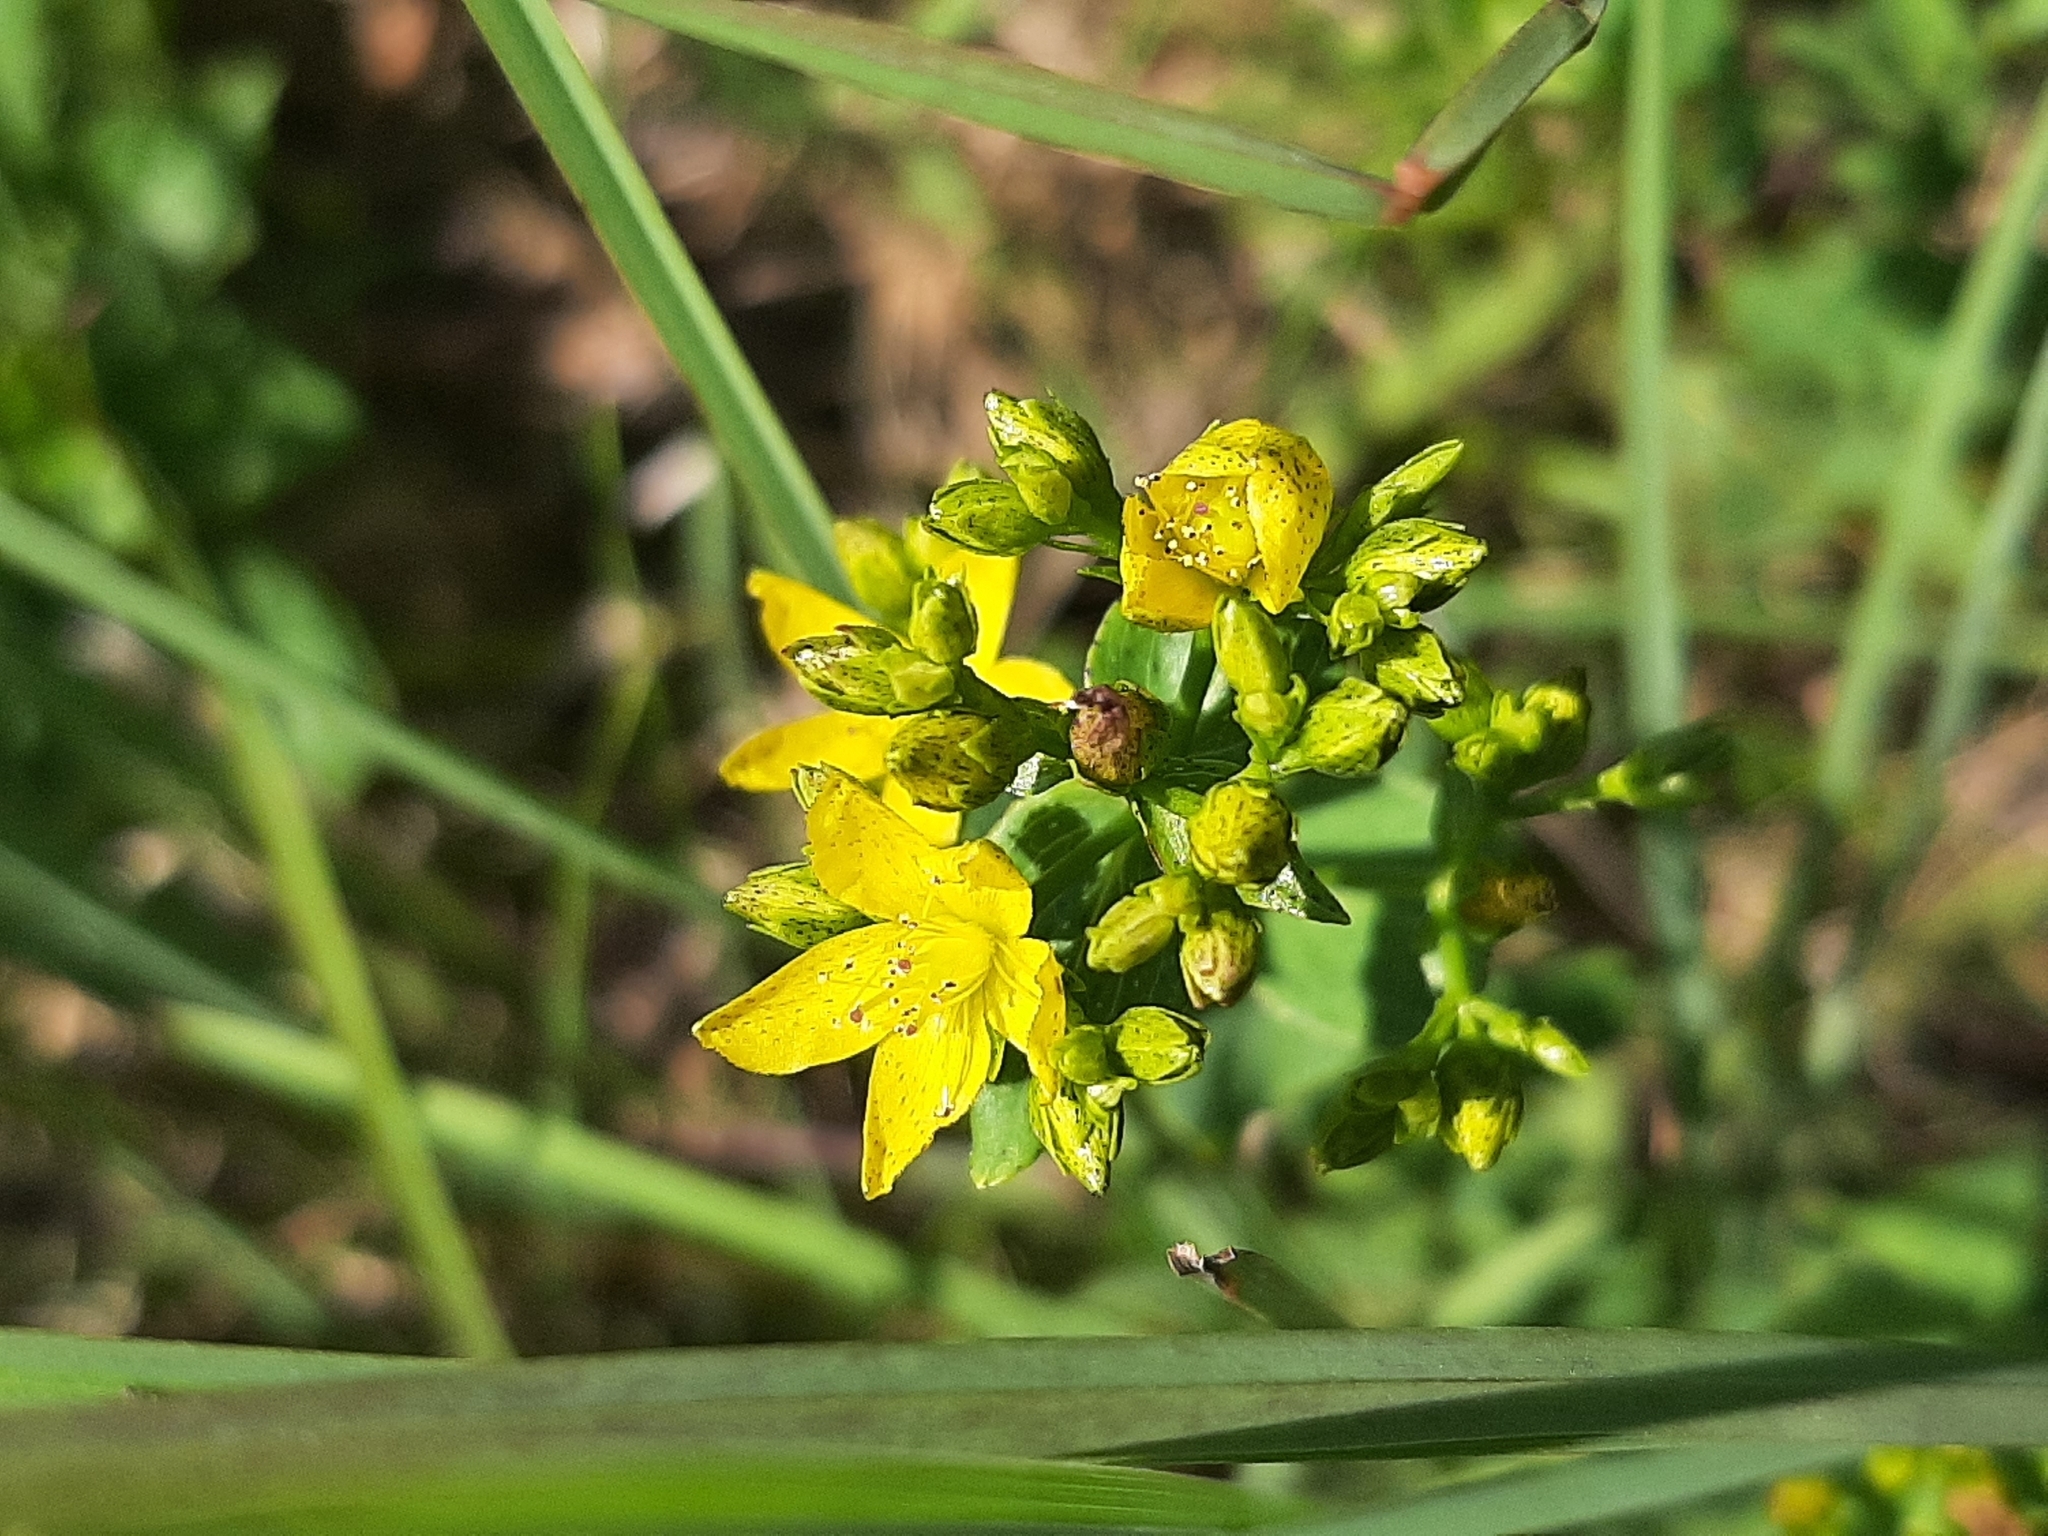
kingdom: Plantae
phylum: Tracheophyta
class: Magnoliopsida
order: Malpighiales
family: Hypericaceae
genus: Hypericum
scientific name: Hypericum punctatum
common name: Spotted st. john's-wort
